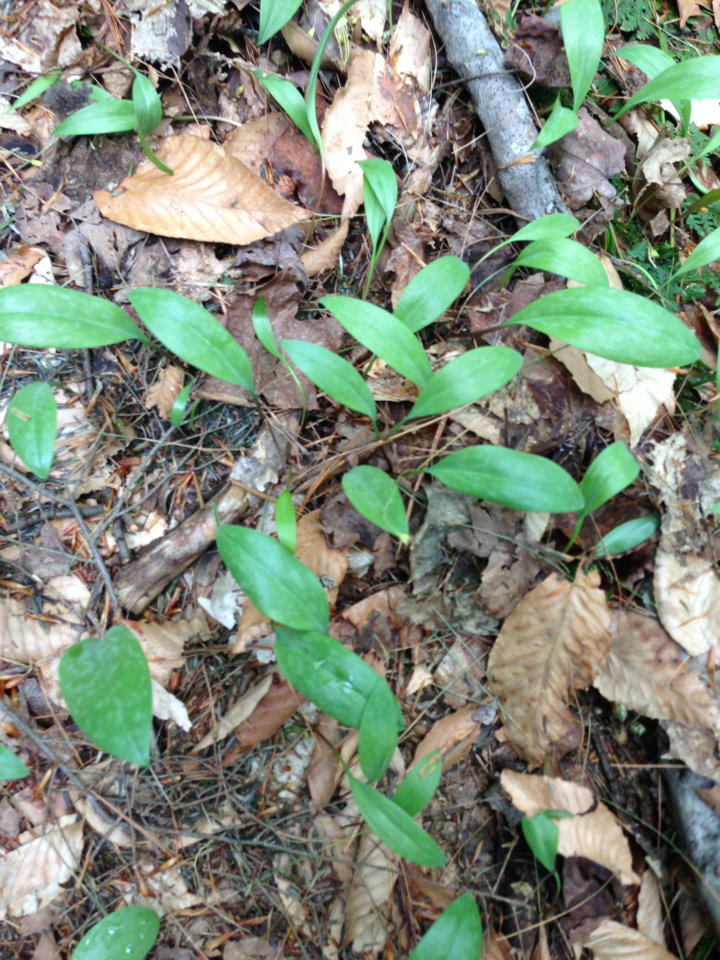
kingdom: Plantae
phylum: Tracheophyta
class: Liliopsida
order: Liliales
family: Liliaceae
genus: Erythronium
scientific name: Erythronium americanum
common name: Yellow adder's-tongue
